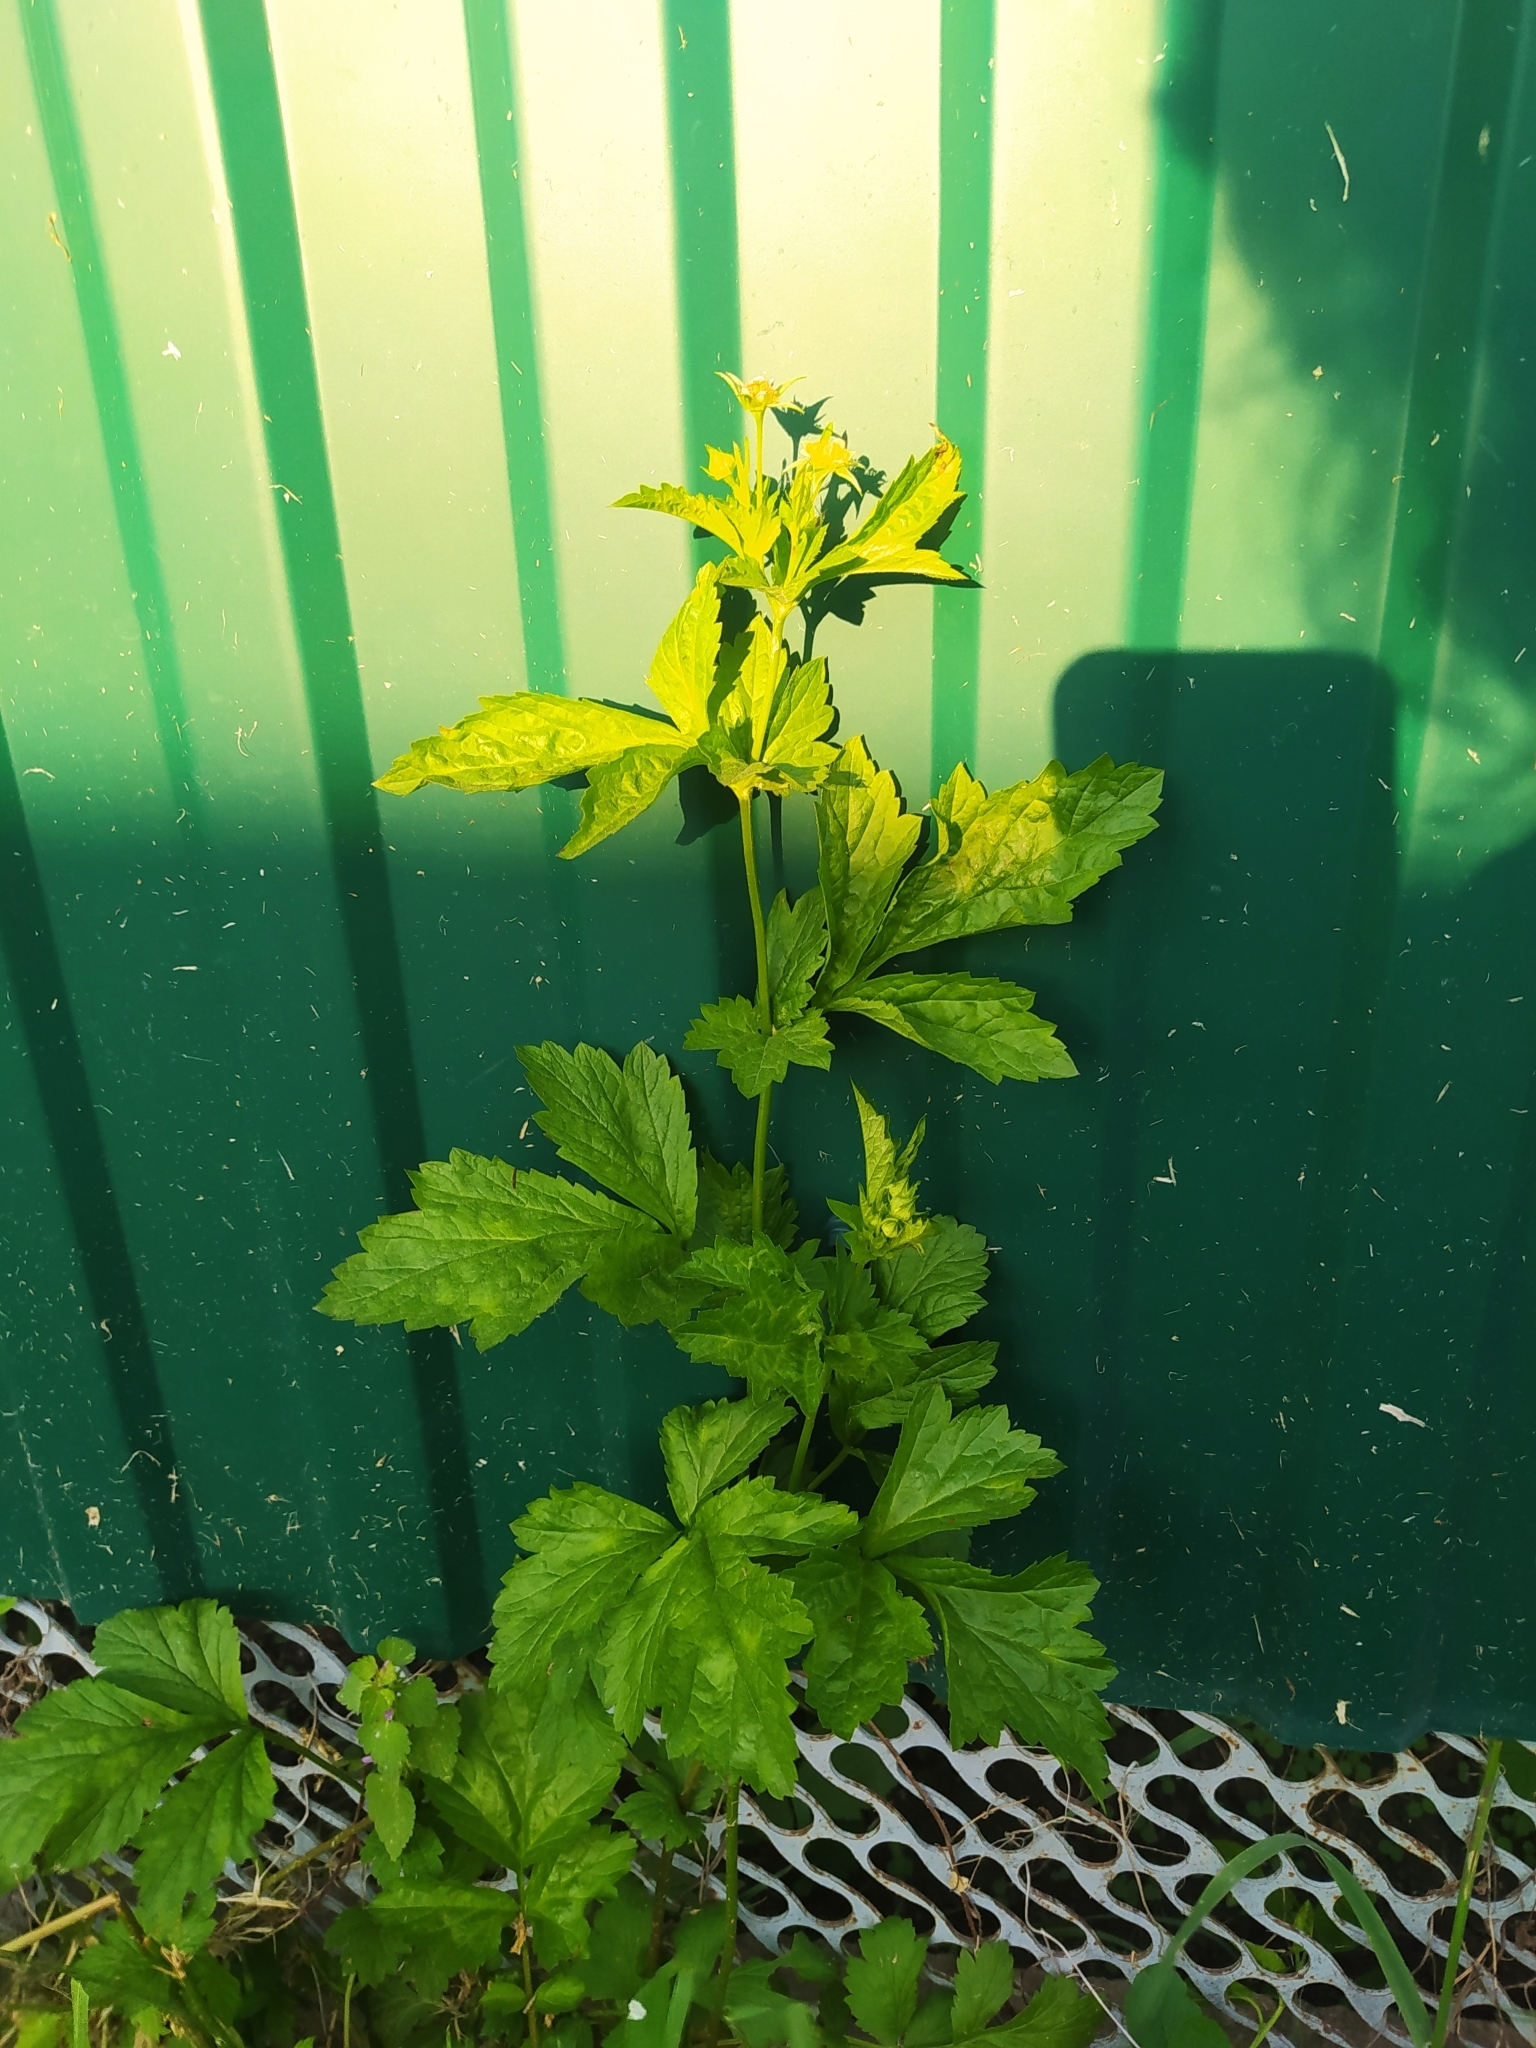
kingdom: Plantae
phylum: Tracheophyta
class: Magnoliopsida
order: Rosales
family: Rosaceae
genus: Geum
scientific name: Geum urbanum
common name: Wood avens
